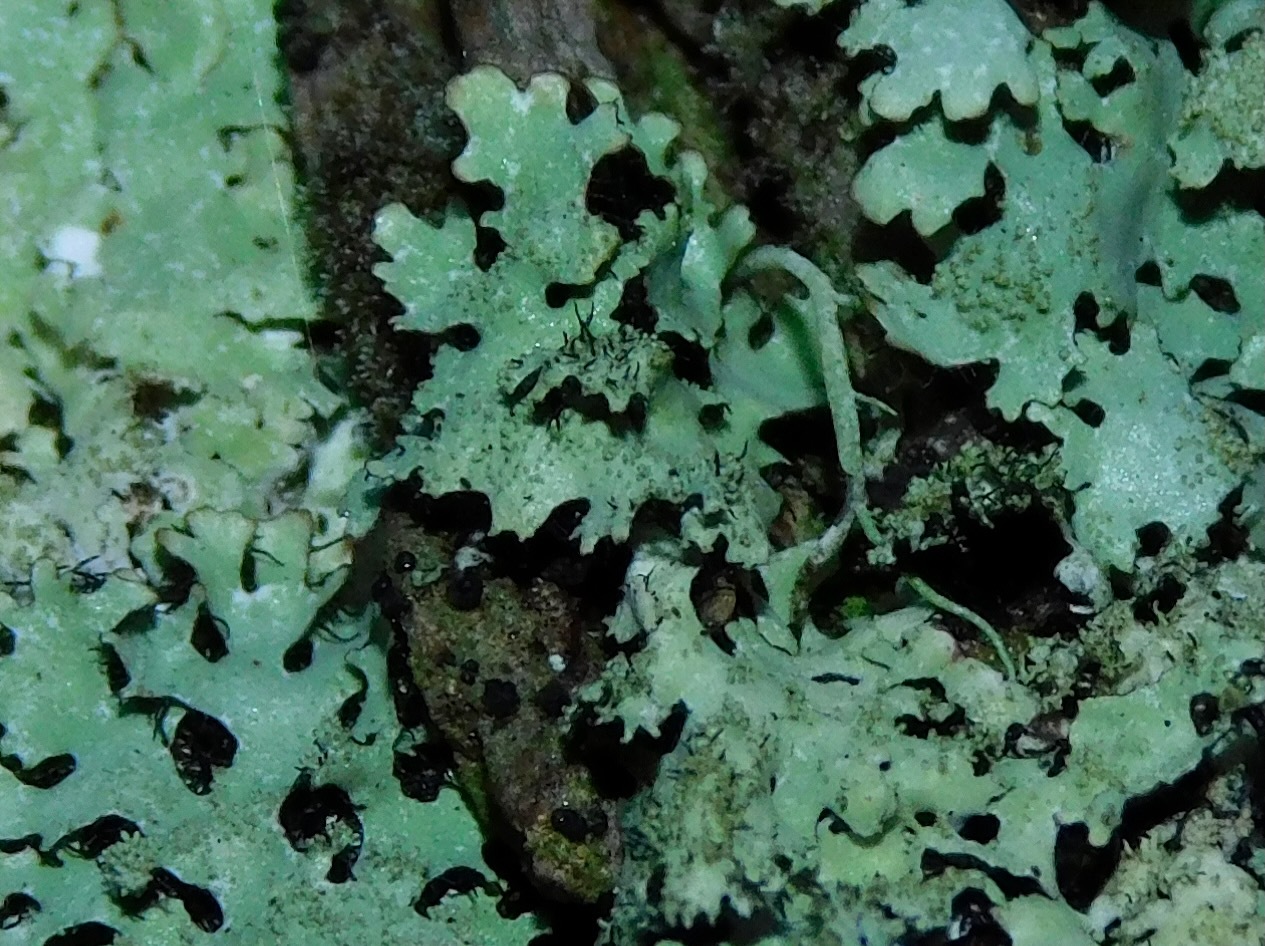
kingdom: Fungi
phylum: Ascomycota
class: Lecanoromycetes
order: Lecanorales
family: Parmeliaceae
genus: Hypotrachyna
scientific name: Hypotrachyna horrescens
